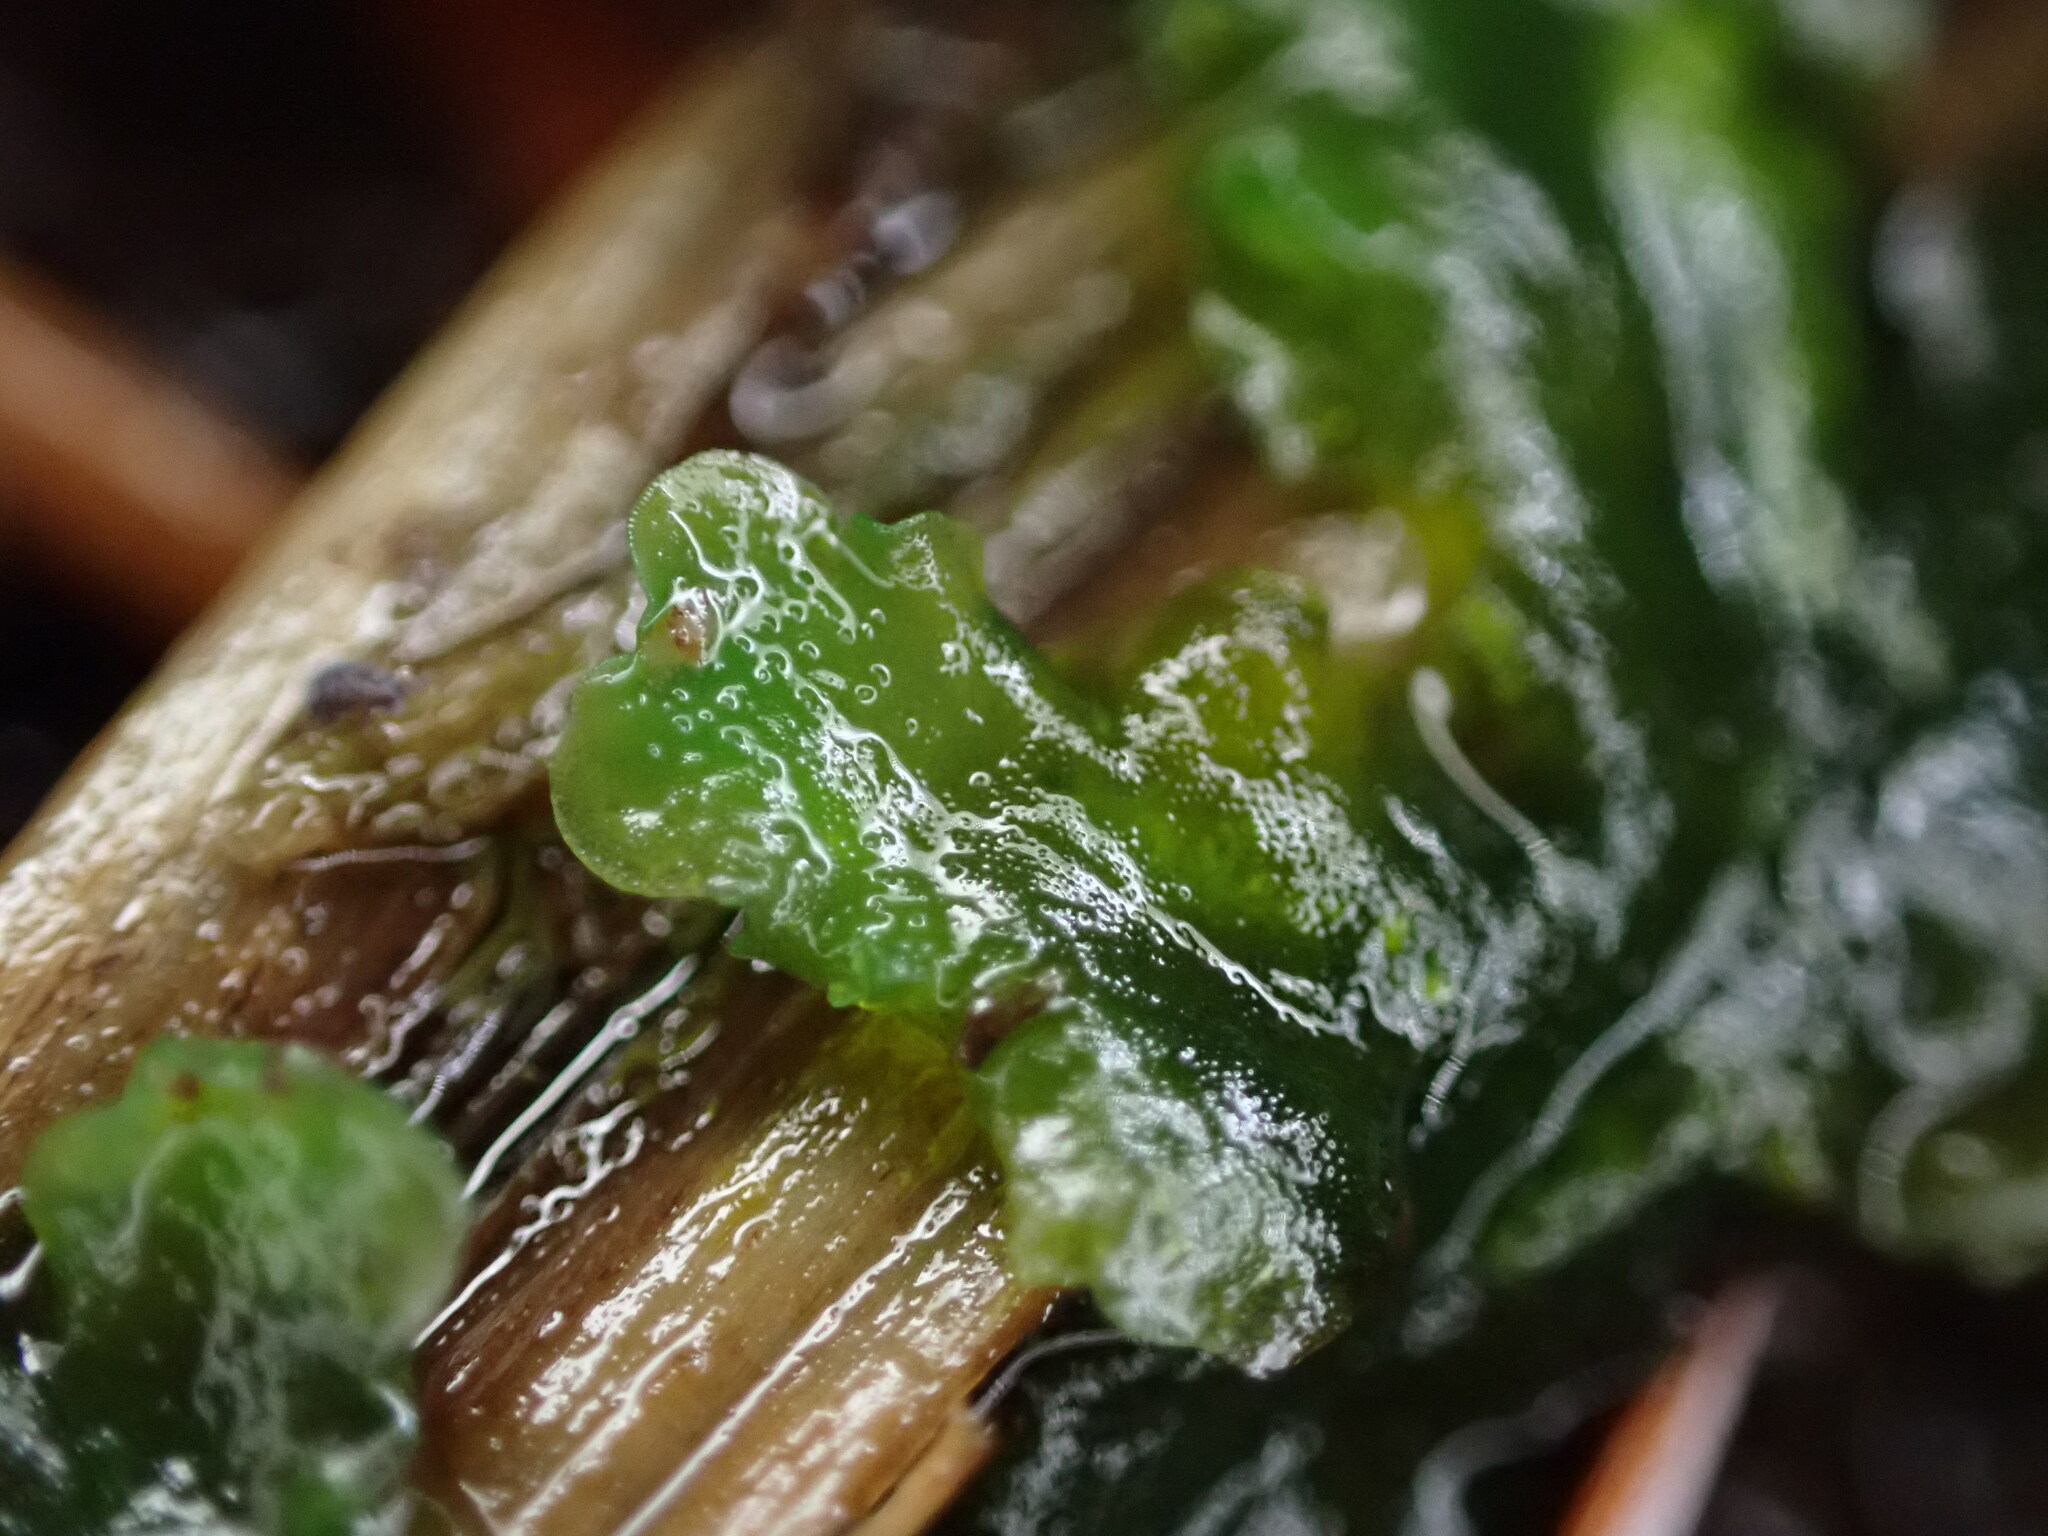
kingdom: Plantae
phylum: Marchantiophyta
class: Jungermanniopsida
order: Pelliales
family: Pelliaceae
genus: Pellia
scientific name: Pellia neesiana
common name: Nees  pellia
